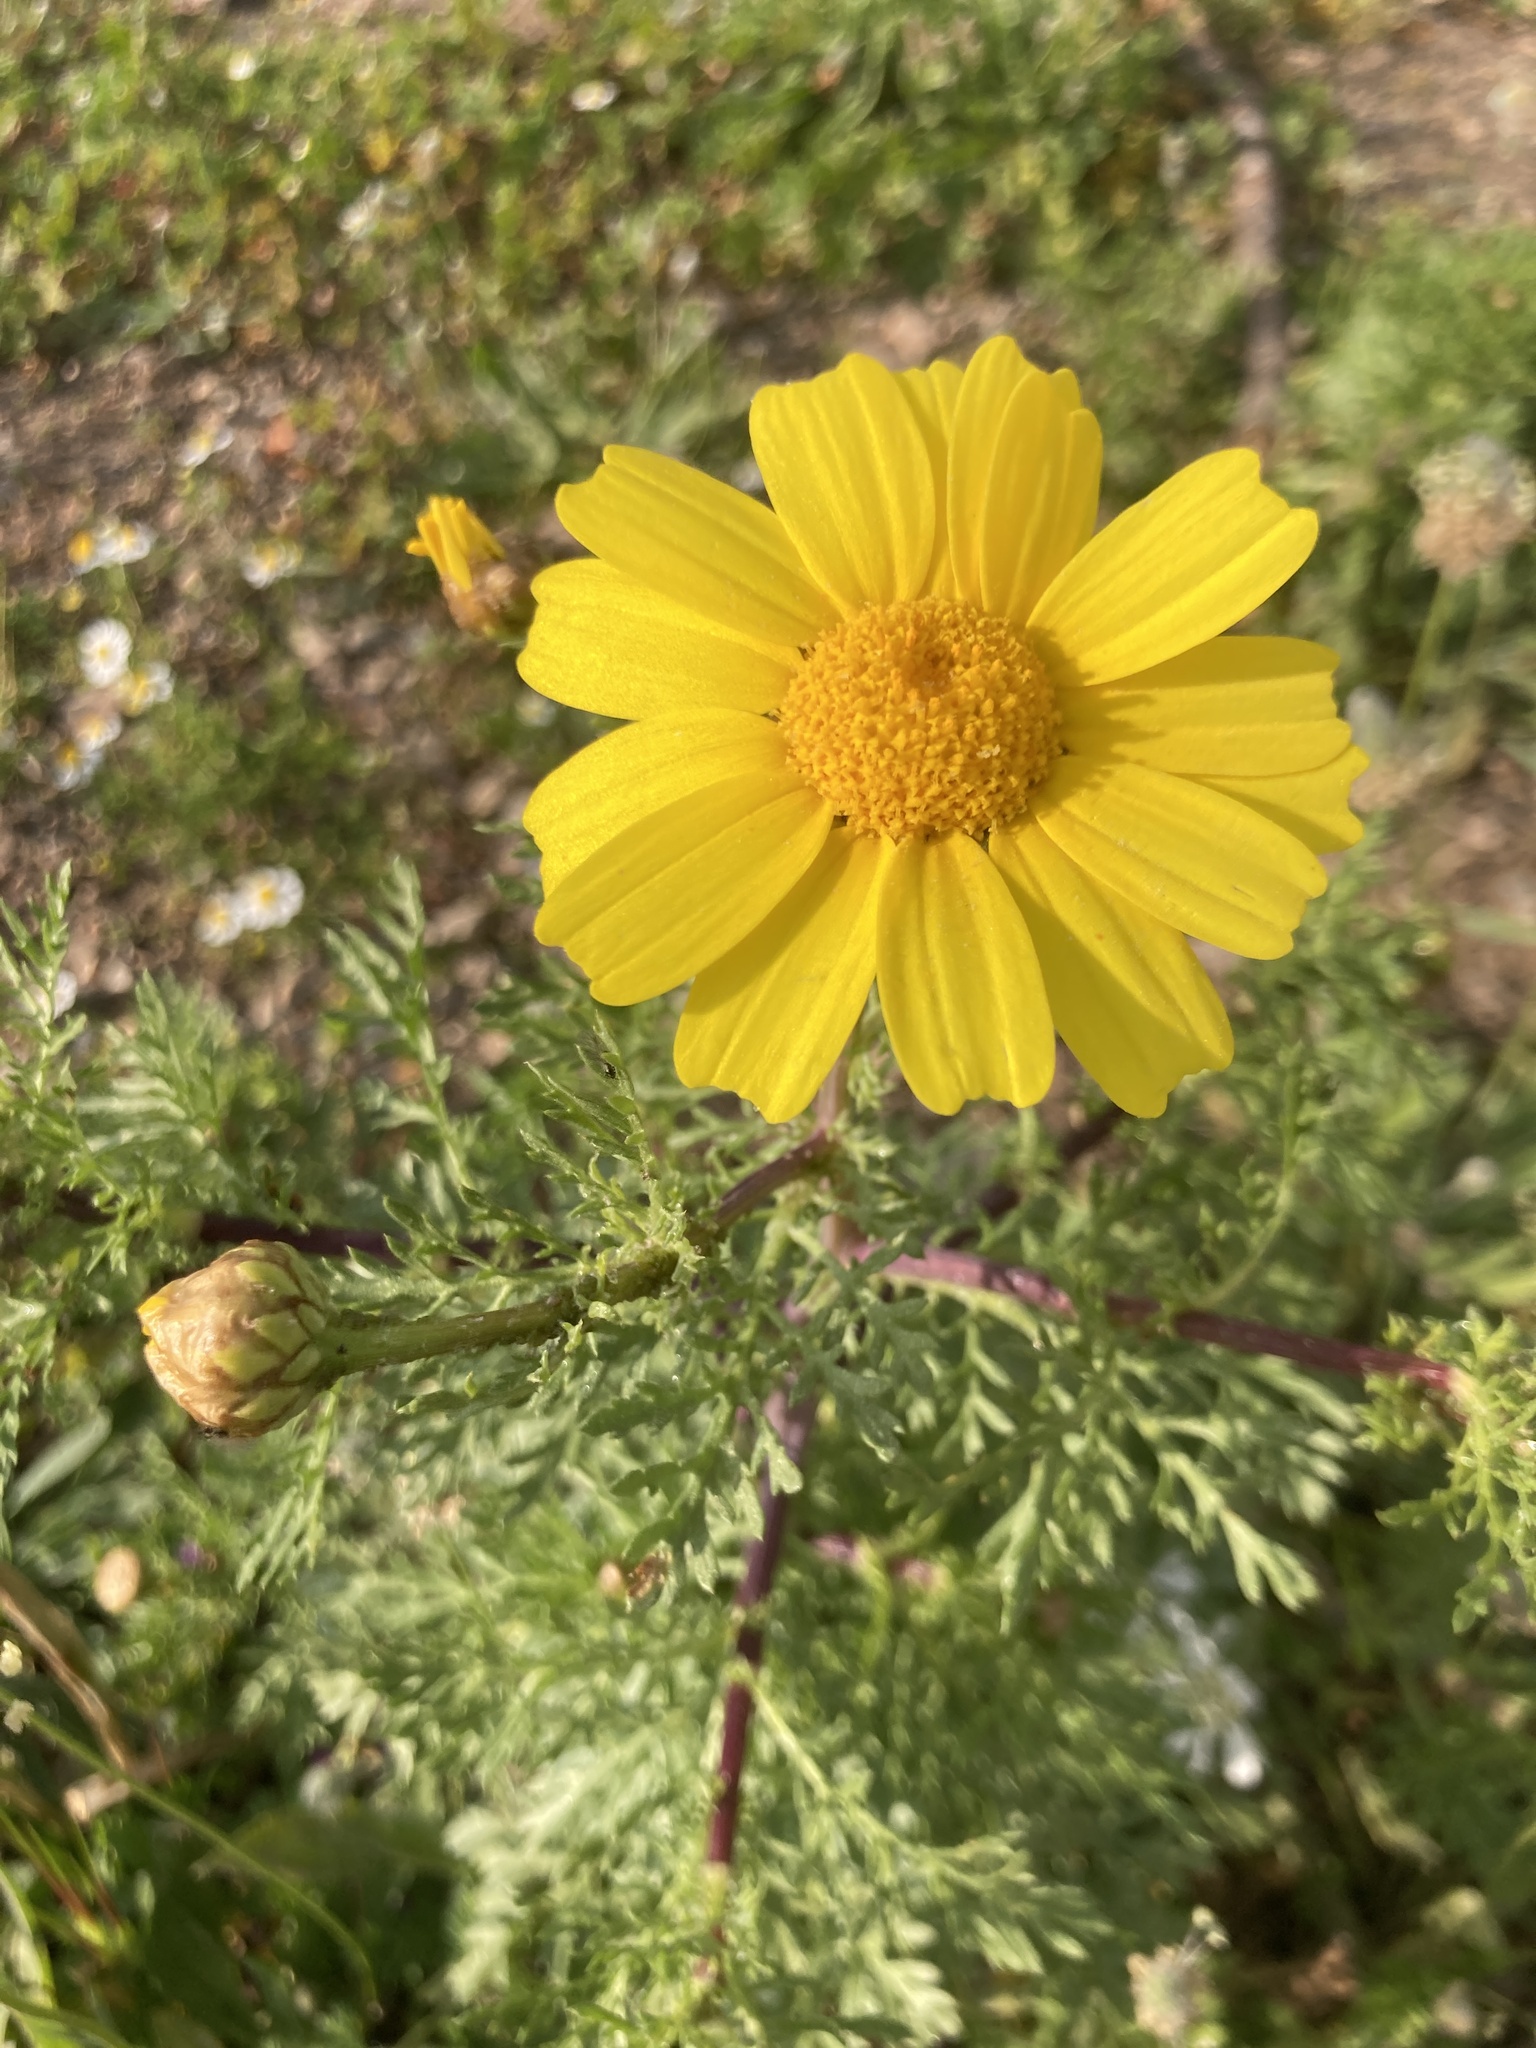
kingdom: Plantae
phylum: Tracheophyta
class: Magnoliopsida
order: Asterales
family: Asteraceae
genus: Glebionis
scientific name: Glebionis coronaria
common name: Crowndaisy
